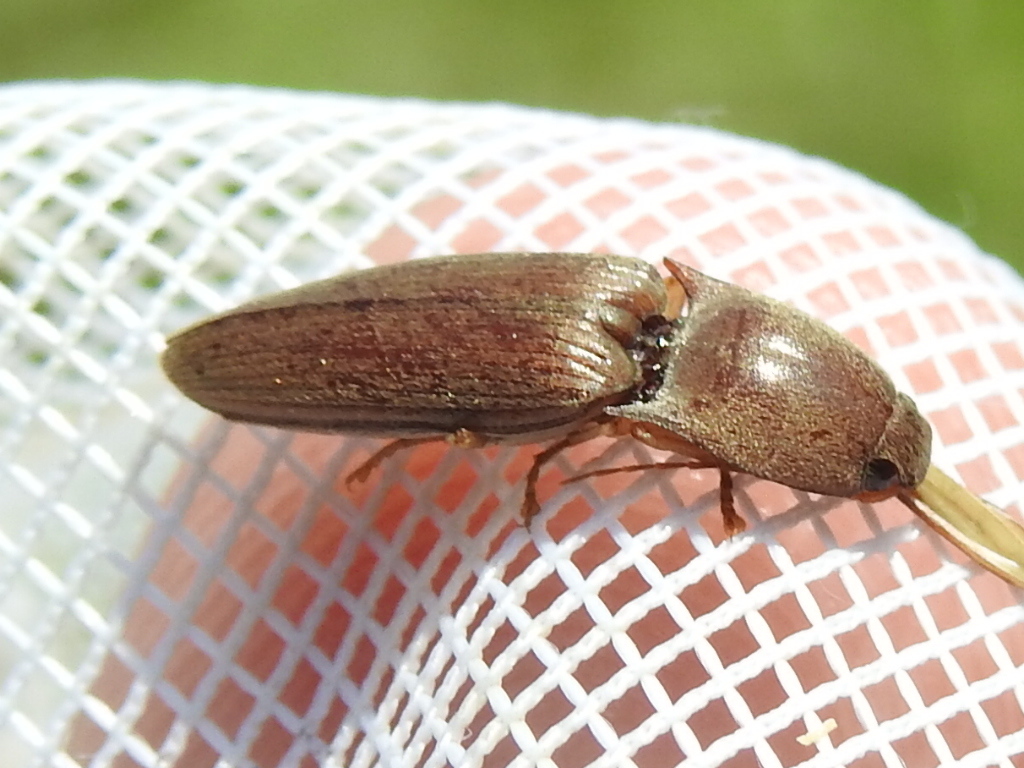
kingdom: Animalia
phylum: Arthropoda
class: Insecta
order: Coleoptera
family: Elateridae
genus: Monocrepidius
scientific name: Monocrepidius lividus
